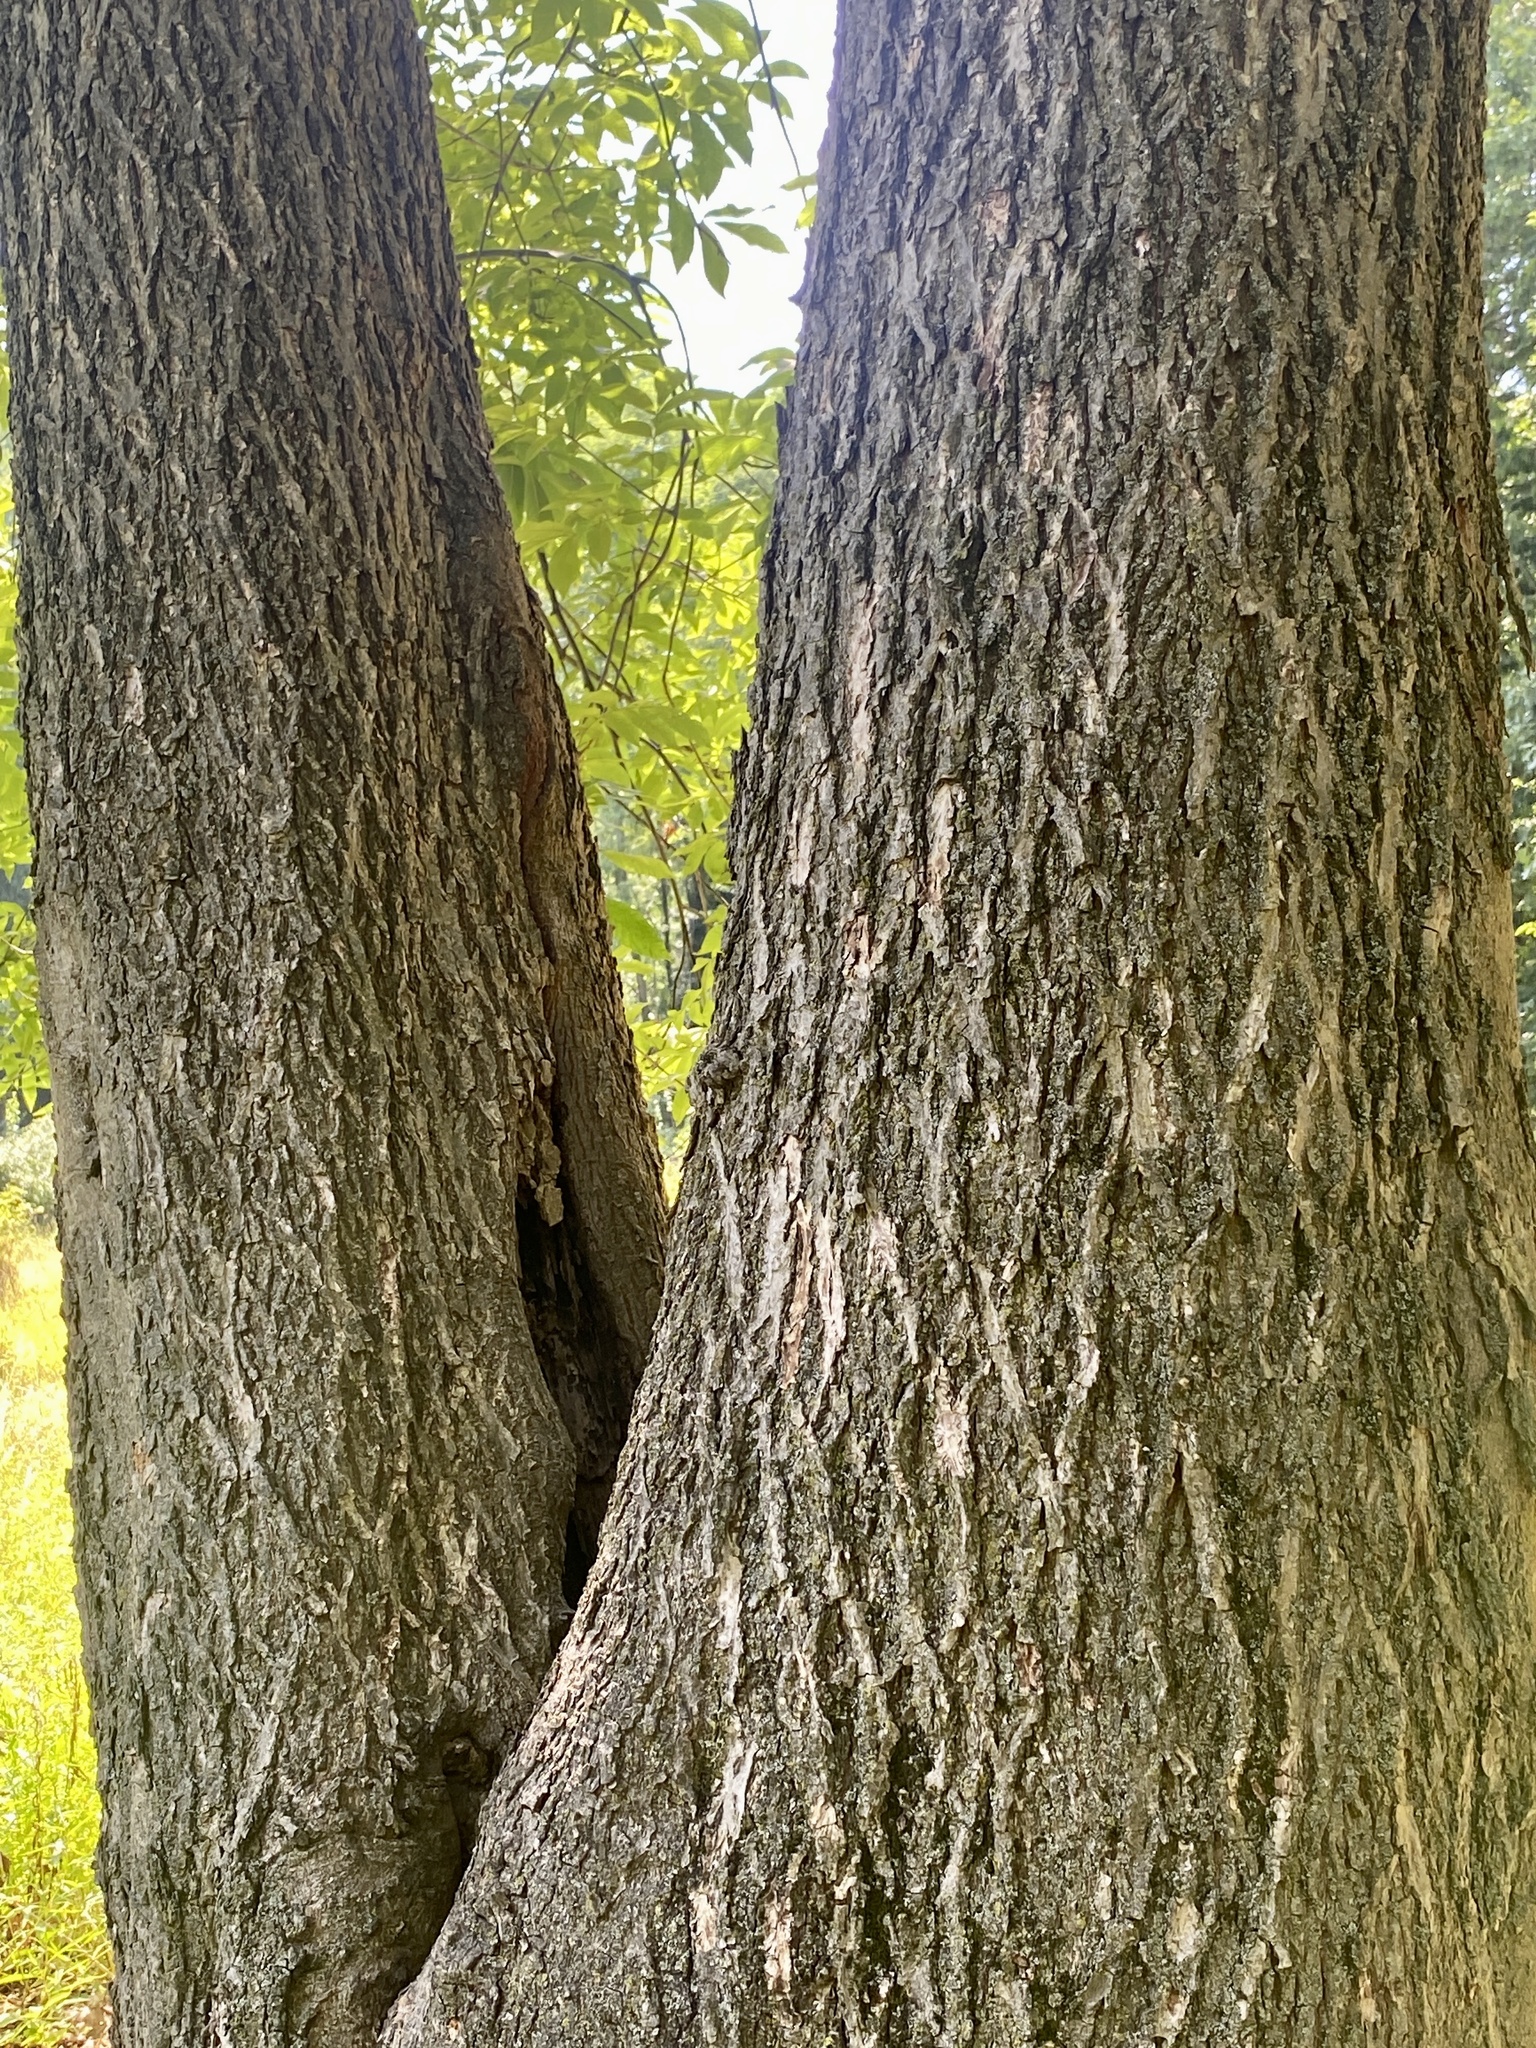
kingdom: Plantae
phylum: Tracheophyta
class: Magnoliopsida
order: Fagales
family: Juglandaceae
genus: Carya
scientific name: Carya cordiformis
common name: Bitternut hickory
